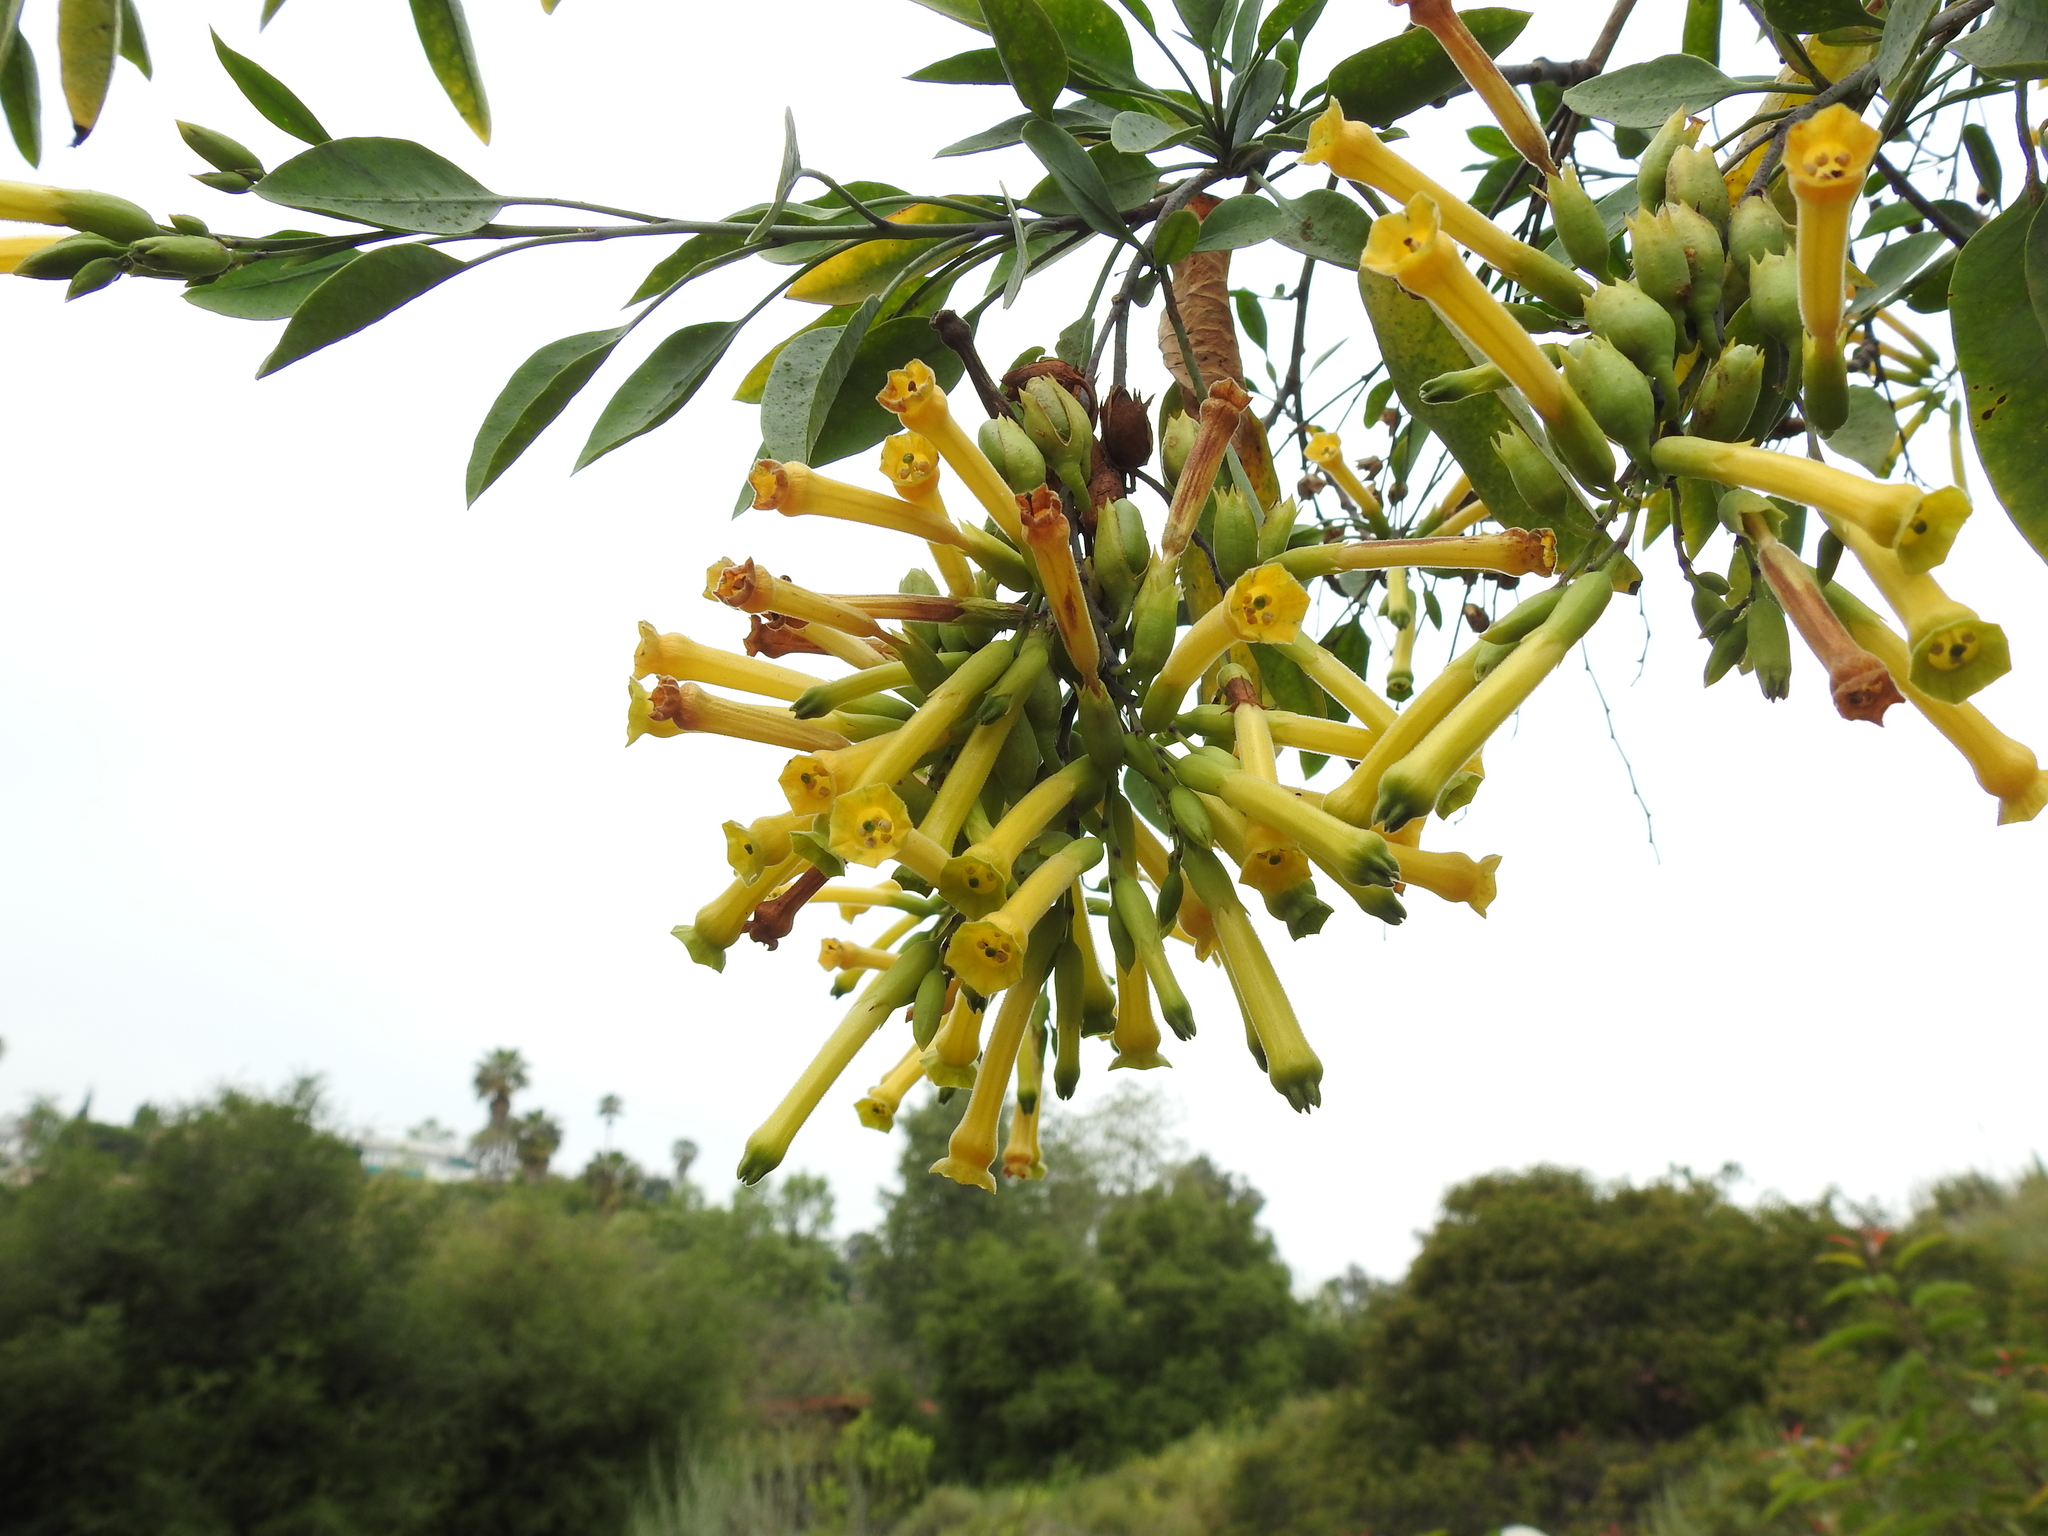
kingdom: Plantae
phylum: Tracheophyta
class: Magnoliopsida
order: Solanales
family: Solanaceae
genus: Nicotiana
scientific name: Nicotiana glauca
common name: Tree tobacco
